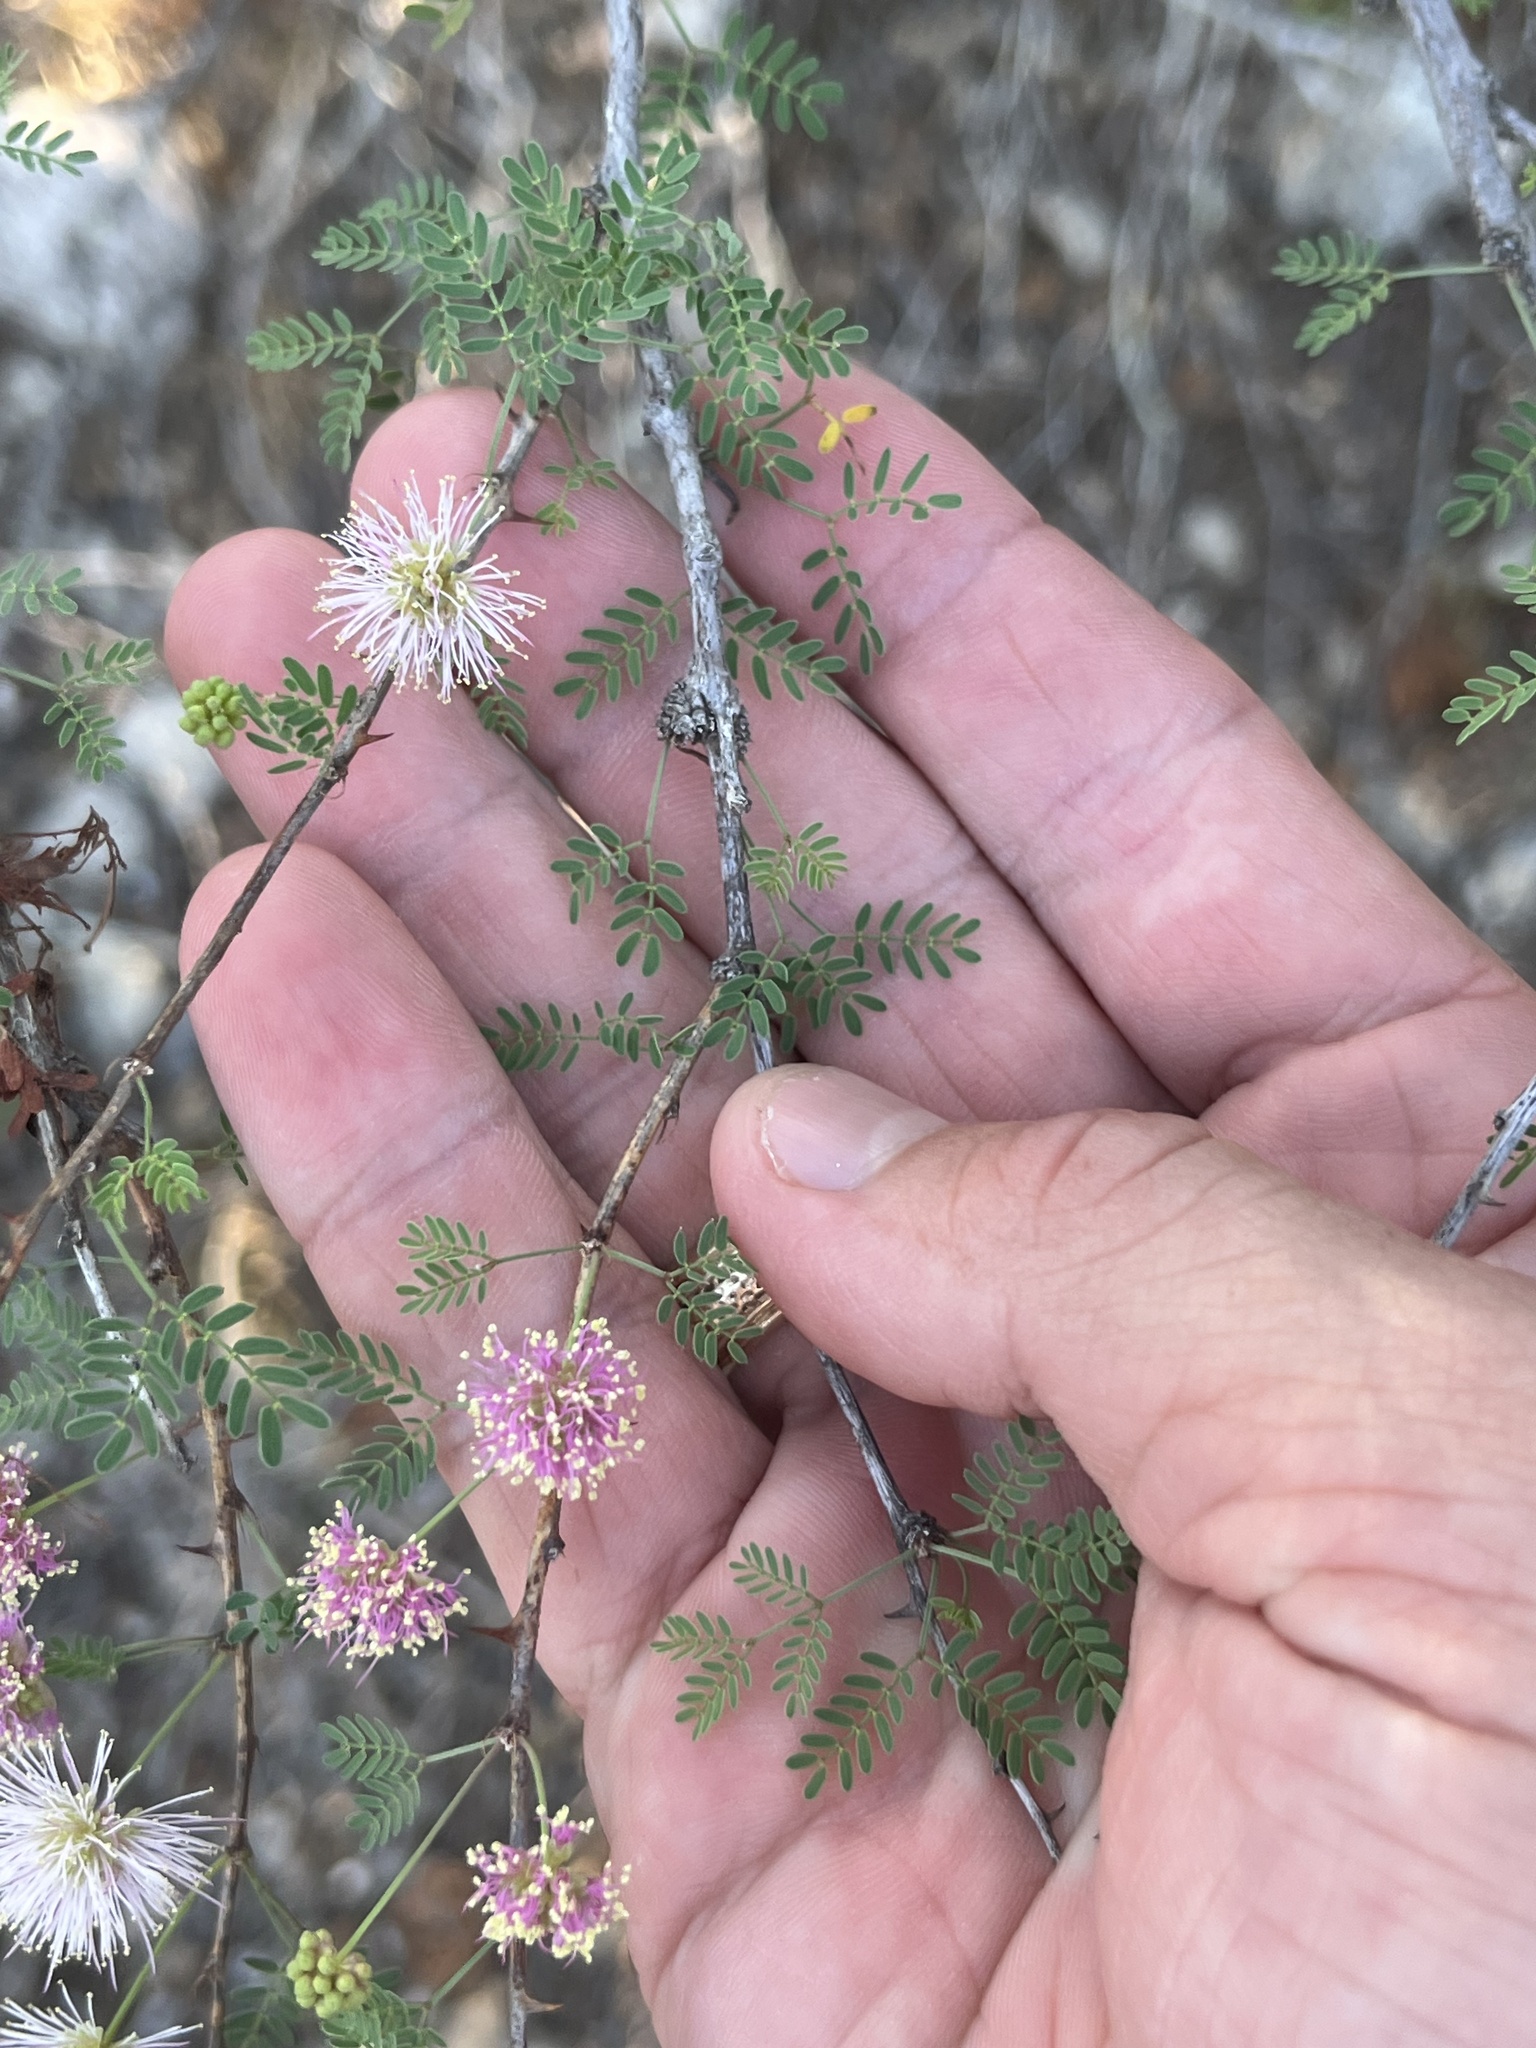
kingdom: Plantae
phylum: Tracheophyta
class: Magnoliopsida
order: Fabales
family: Fabaceae
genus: Mimosa
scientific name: Mimosa borealis
